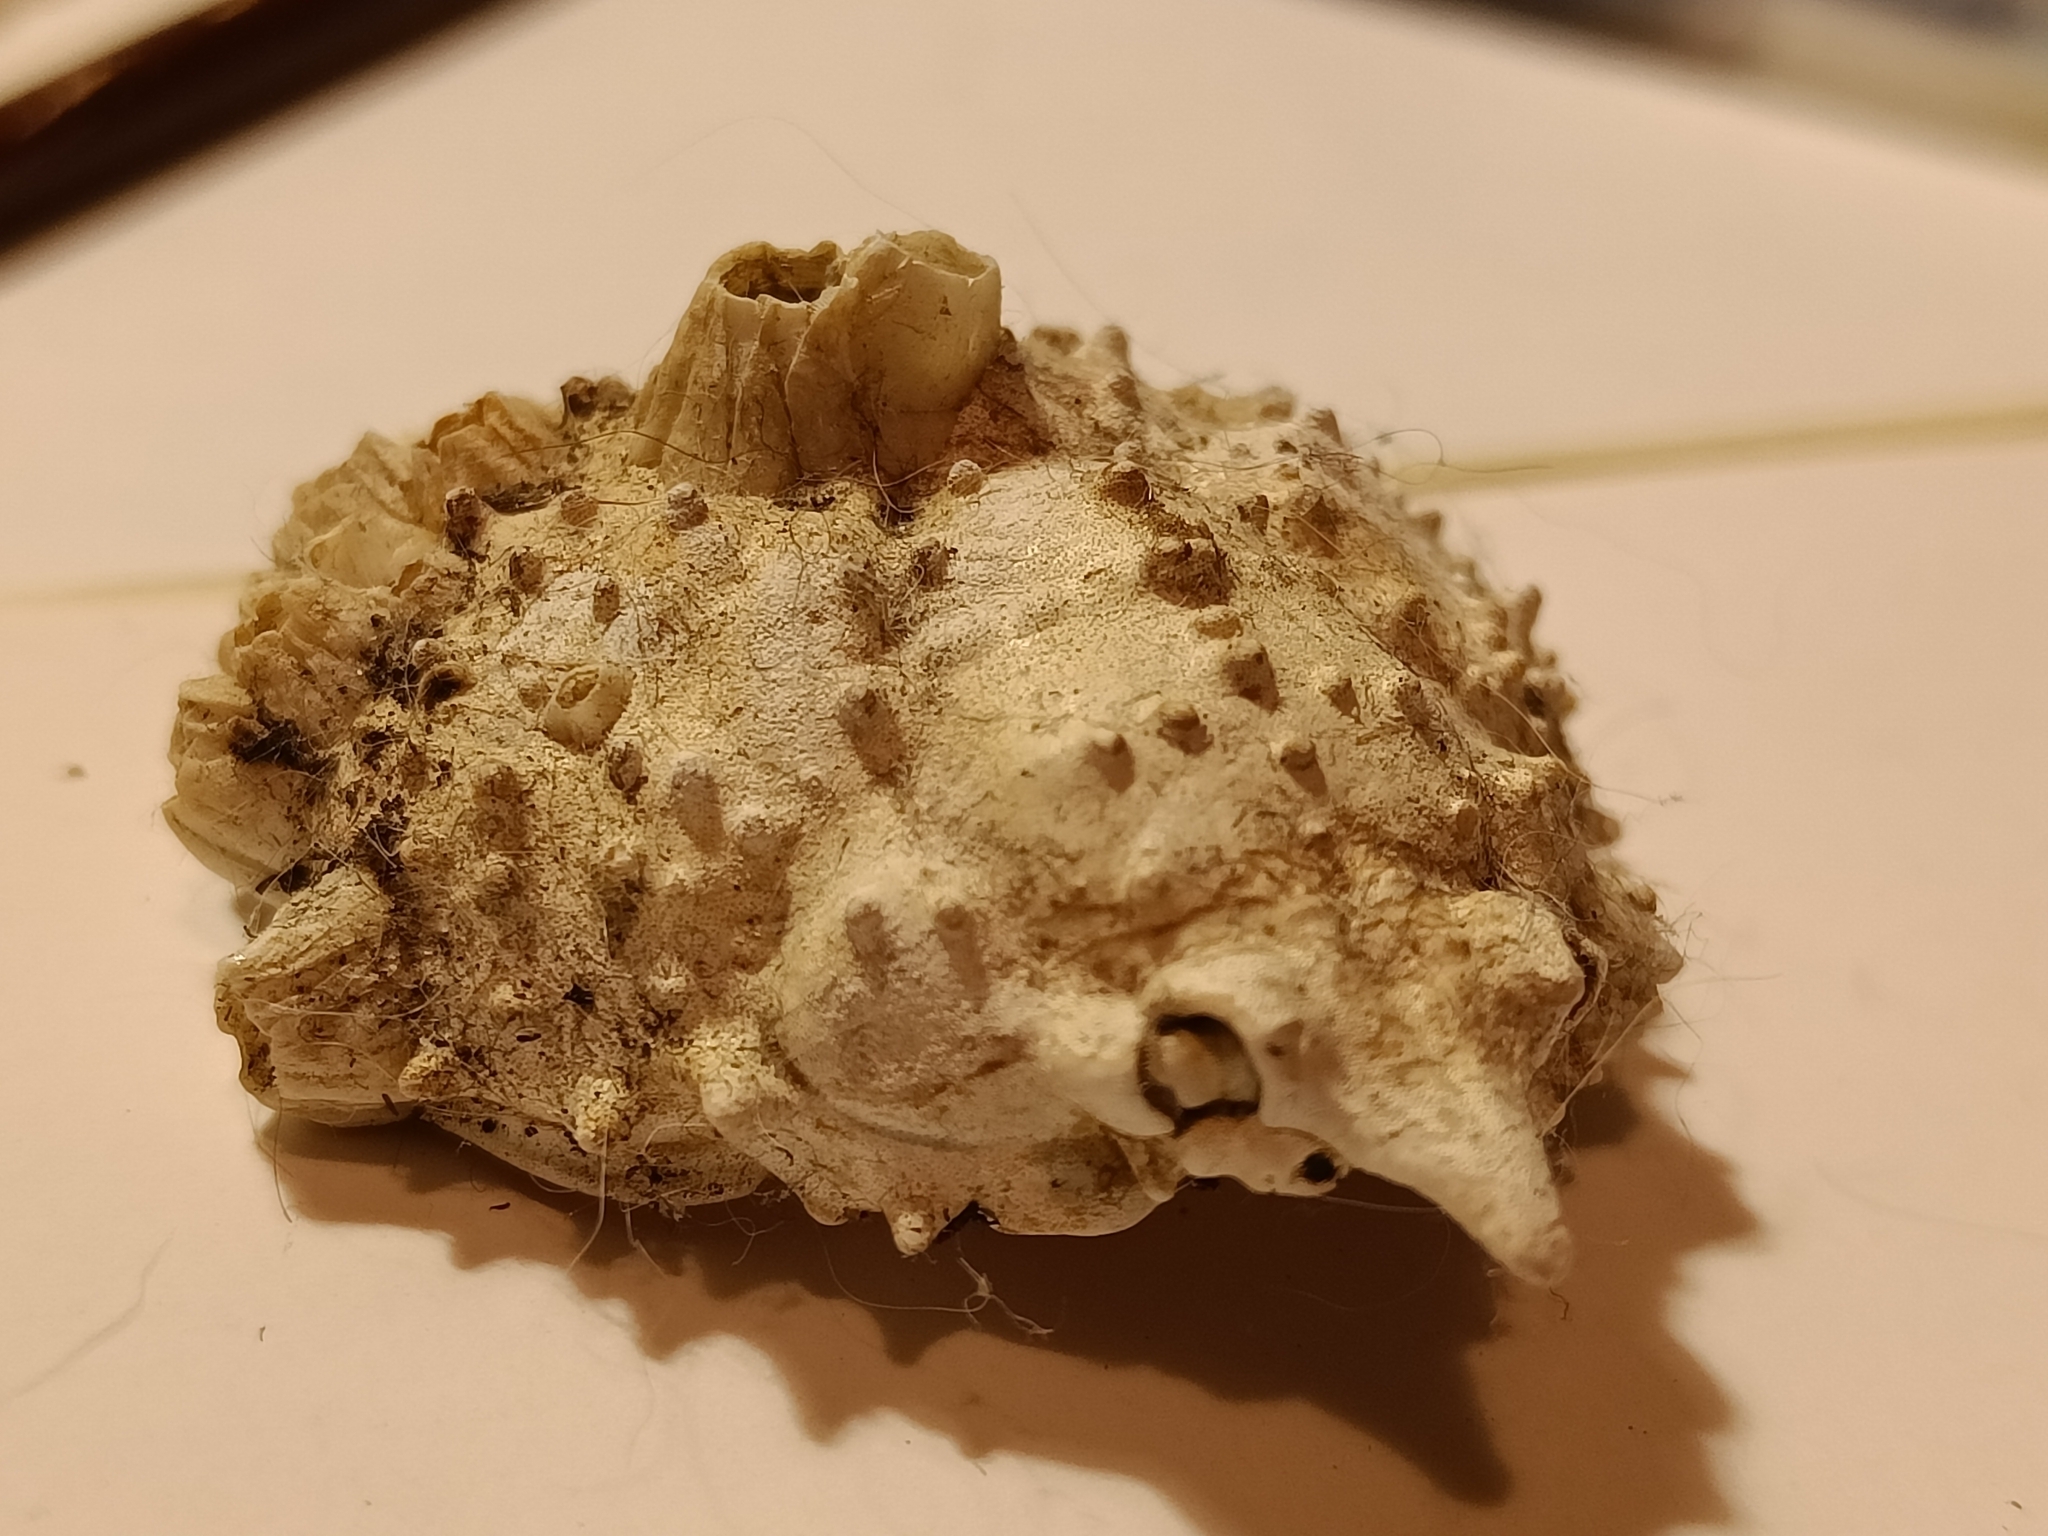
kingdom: Animalia
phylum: Arthropoda
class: Malacostraca
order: Decapoda
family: Epialtidae
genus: Libinia
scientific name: Libinia emarginata
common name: Common spider crab
